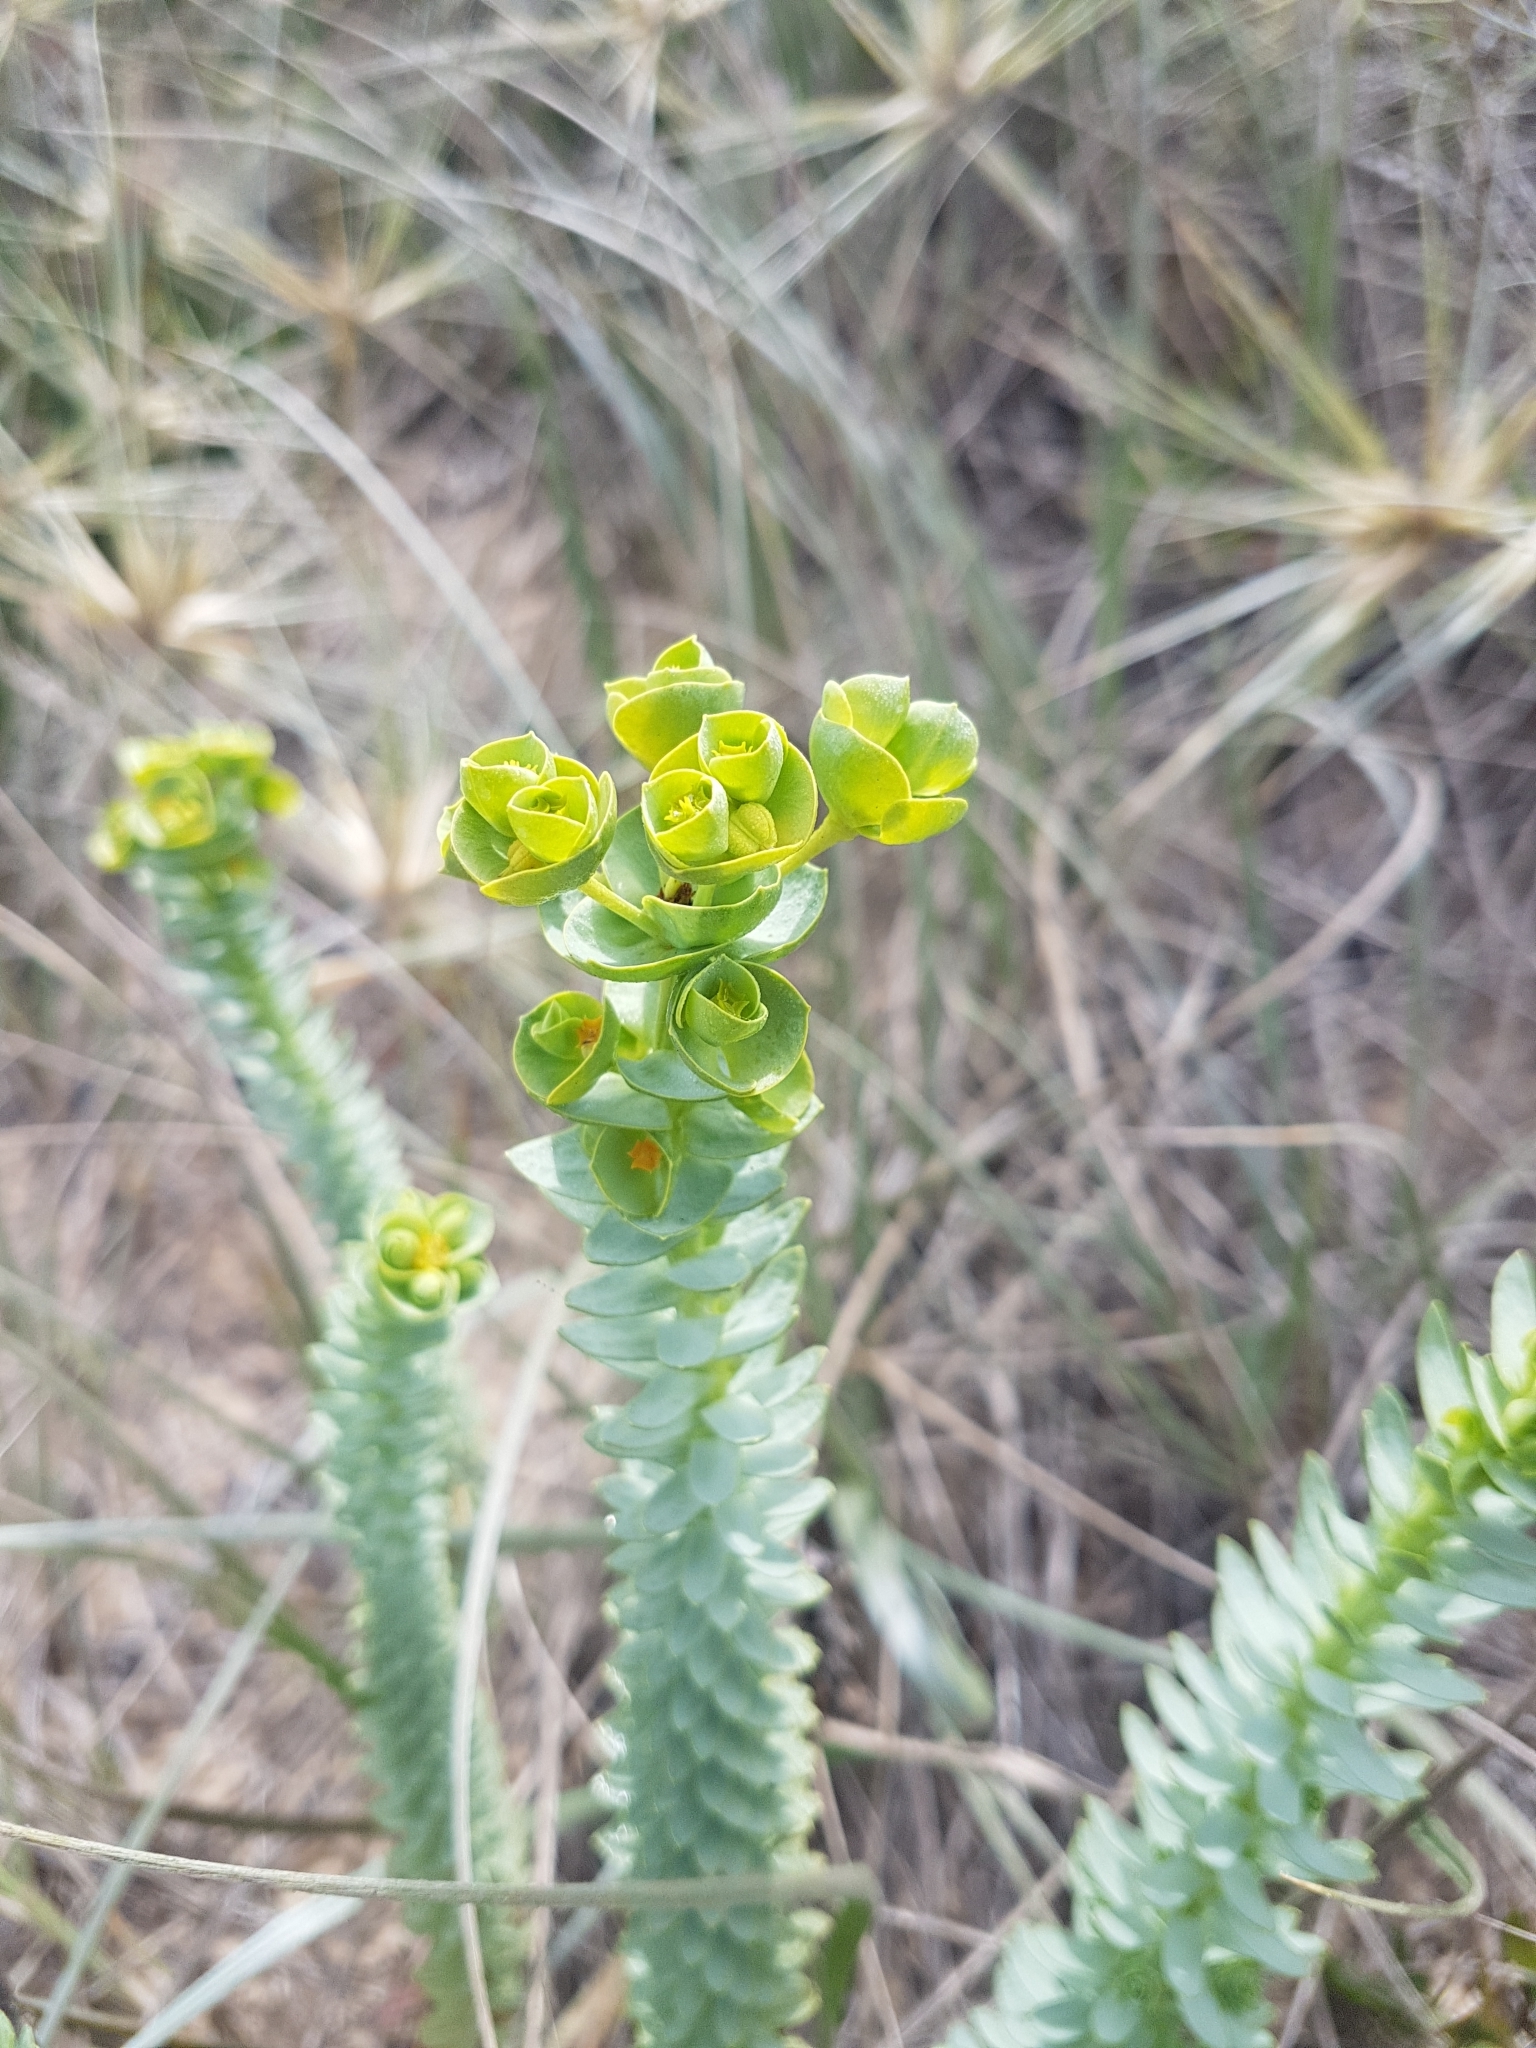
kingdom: Plantae
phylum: Tracheophyta
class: Magnoliopsida
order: Malpighiales
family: Euphorbiaceae
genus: Euphorbia
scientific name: Euphorbia paralias
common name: Sea spurge
